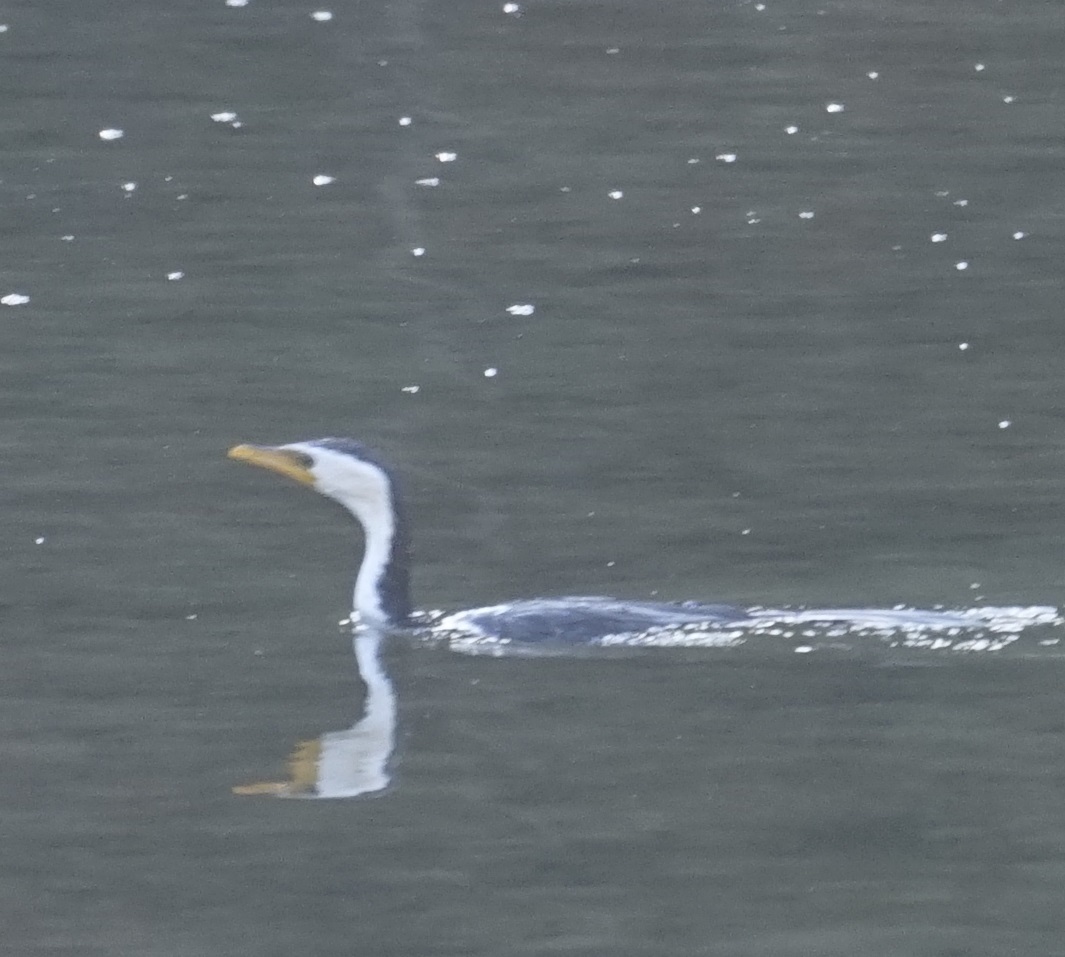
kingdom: Animalia
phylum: Chordata
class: Aves
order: Suliformes
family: Phalacrocoracidae
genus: Microcarbo
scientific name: Microcarbo melanoleucos
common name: Little pied cormorant
